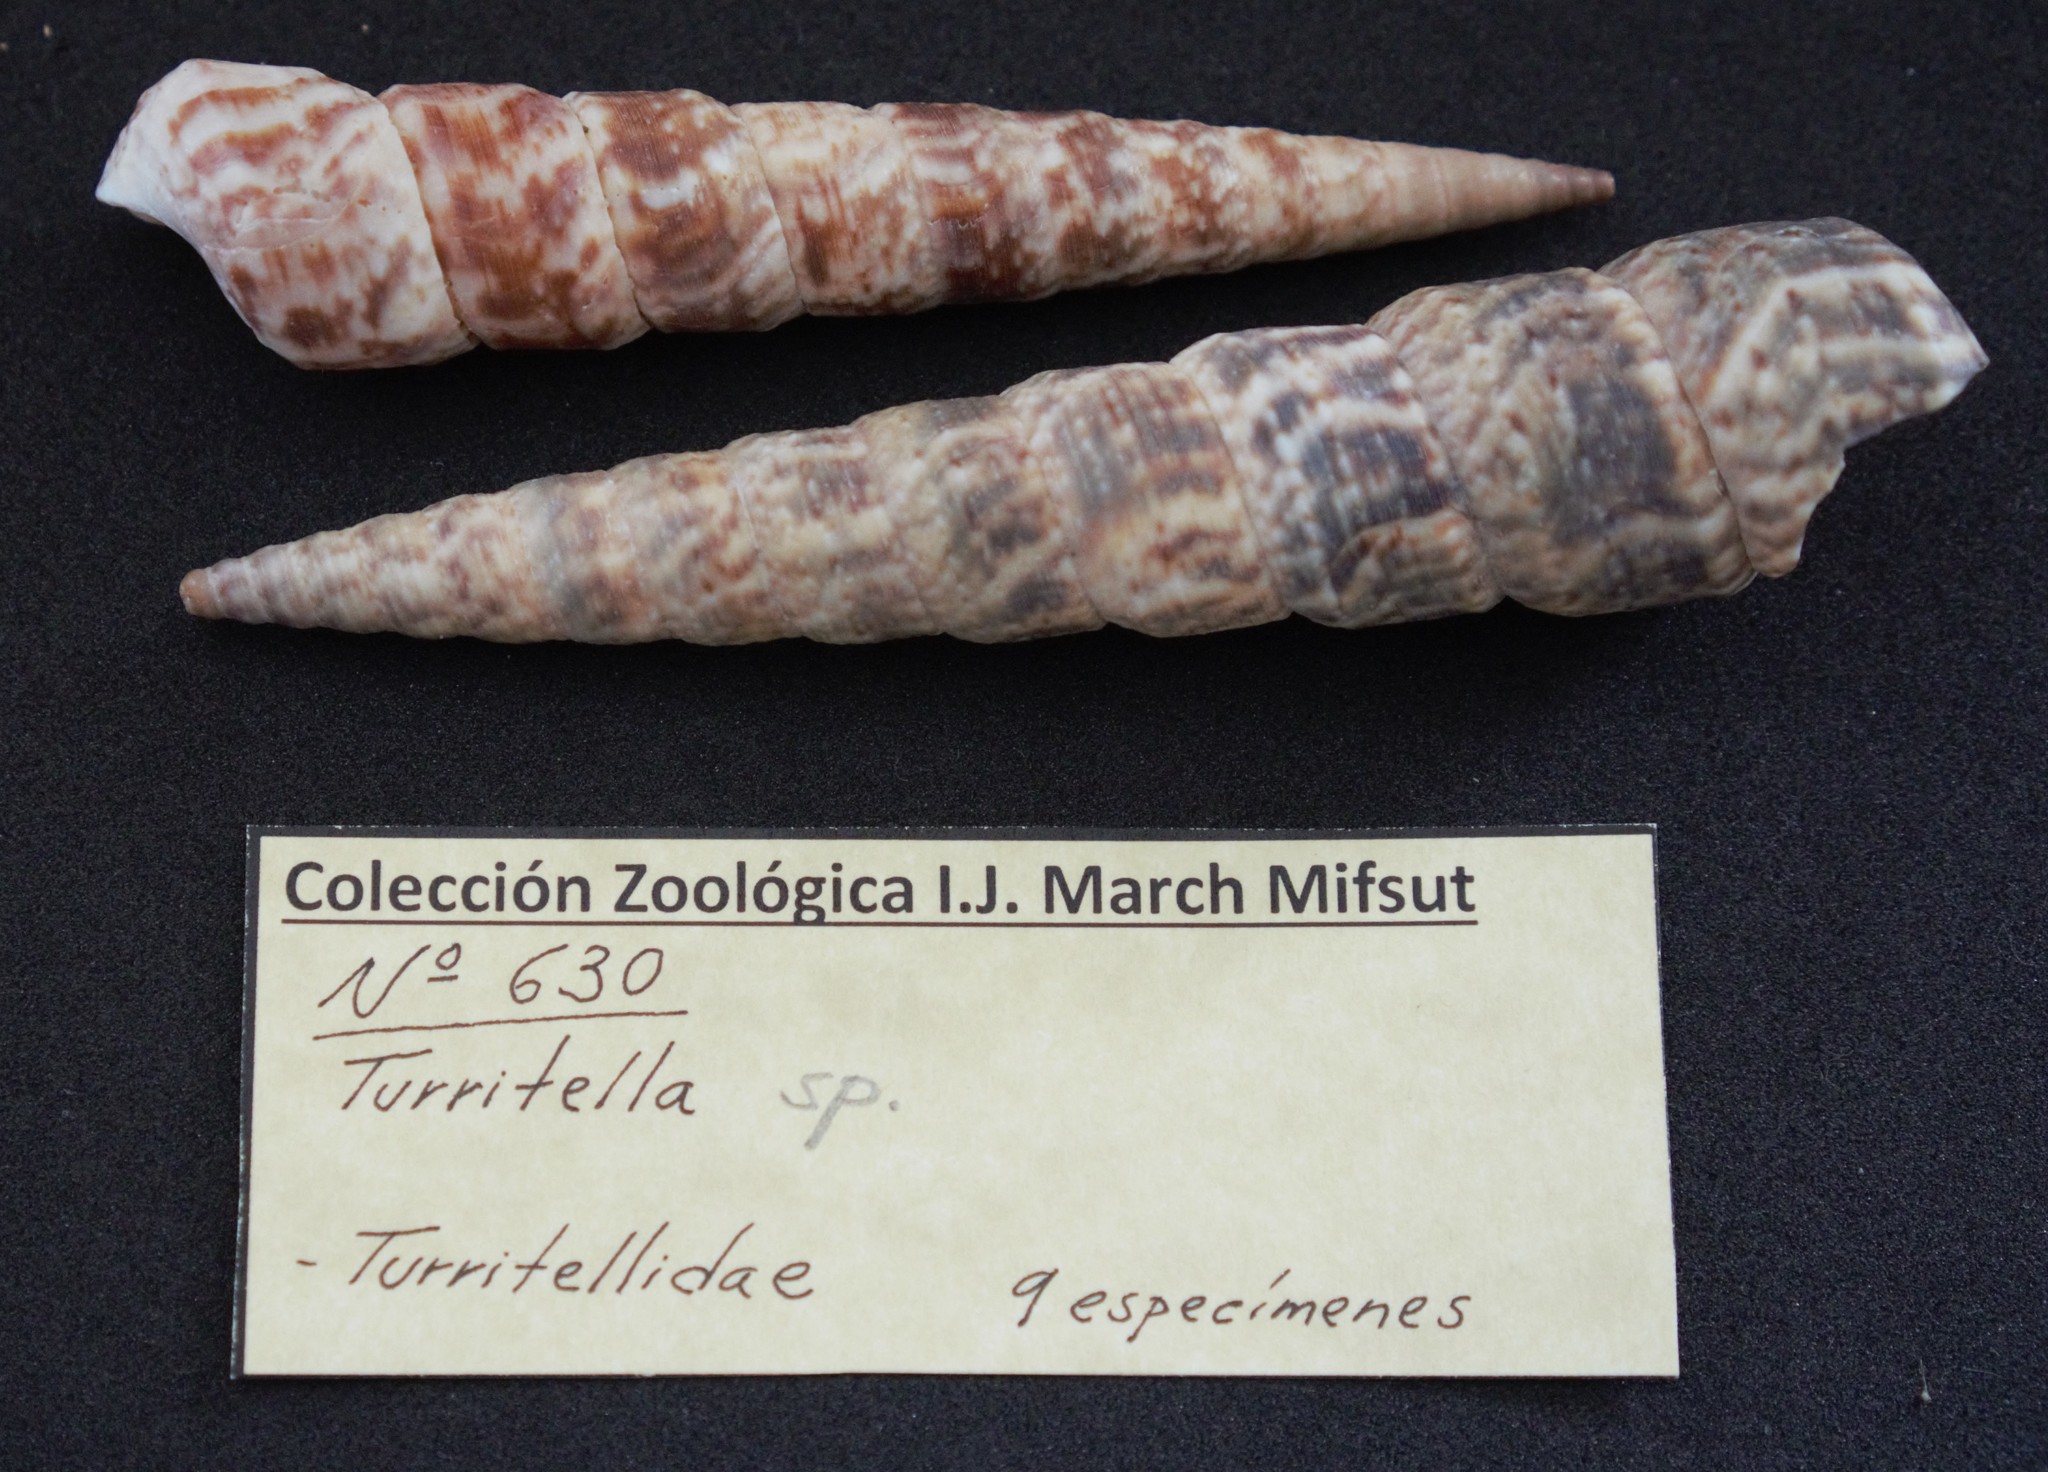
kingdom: Animalia
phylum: Mollusca
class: Gastropoda
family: Turritellidae
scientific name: Turritellidae
